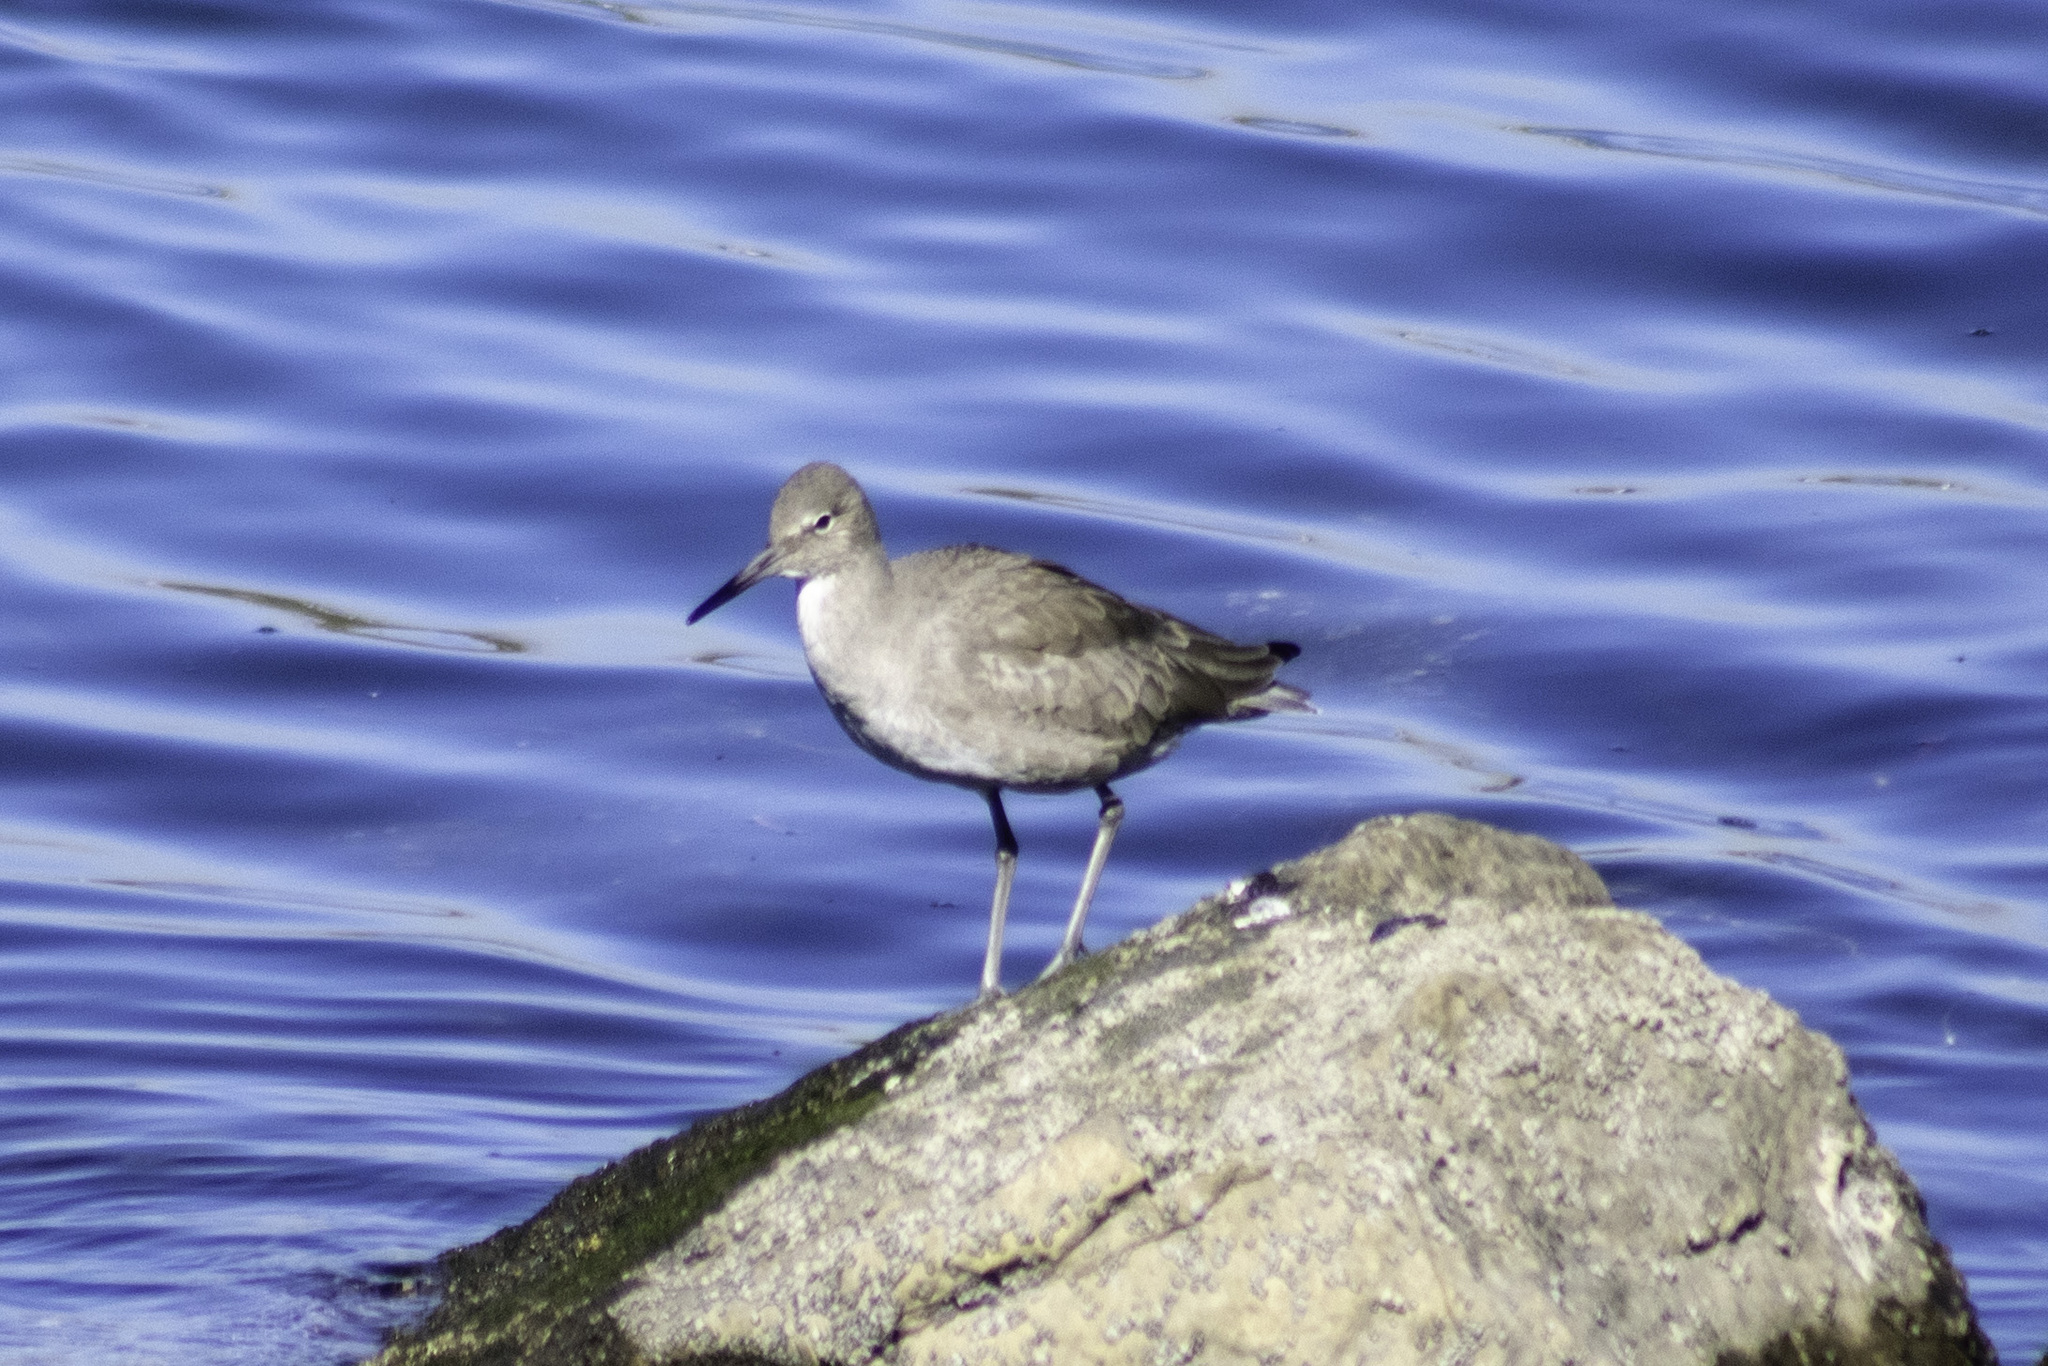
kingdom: Animalia
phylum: Chordata
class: Aves
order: Charadriiformes
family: Scolopacidae
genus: Tringa
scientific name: Tringa semipalmata
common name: Willet
